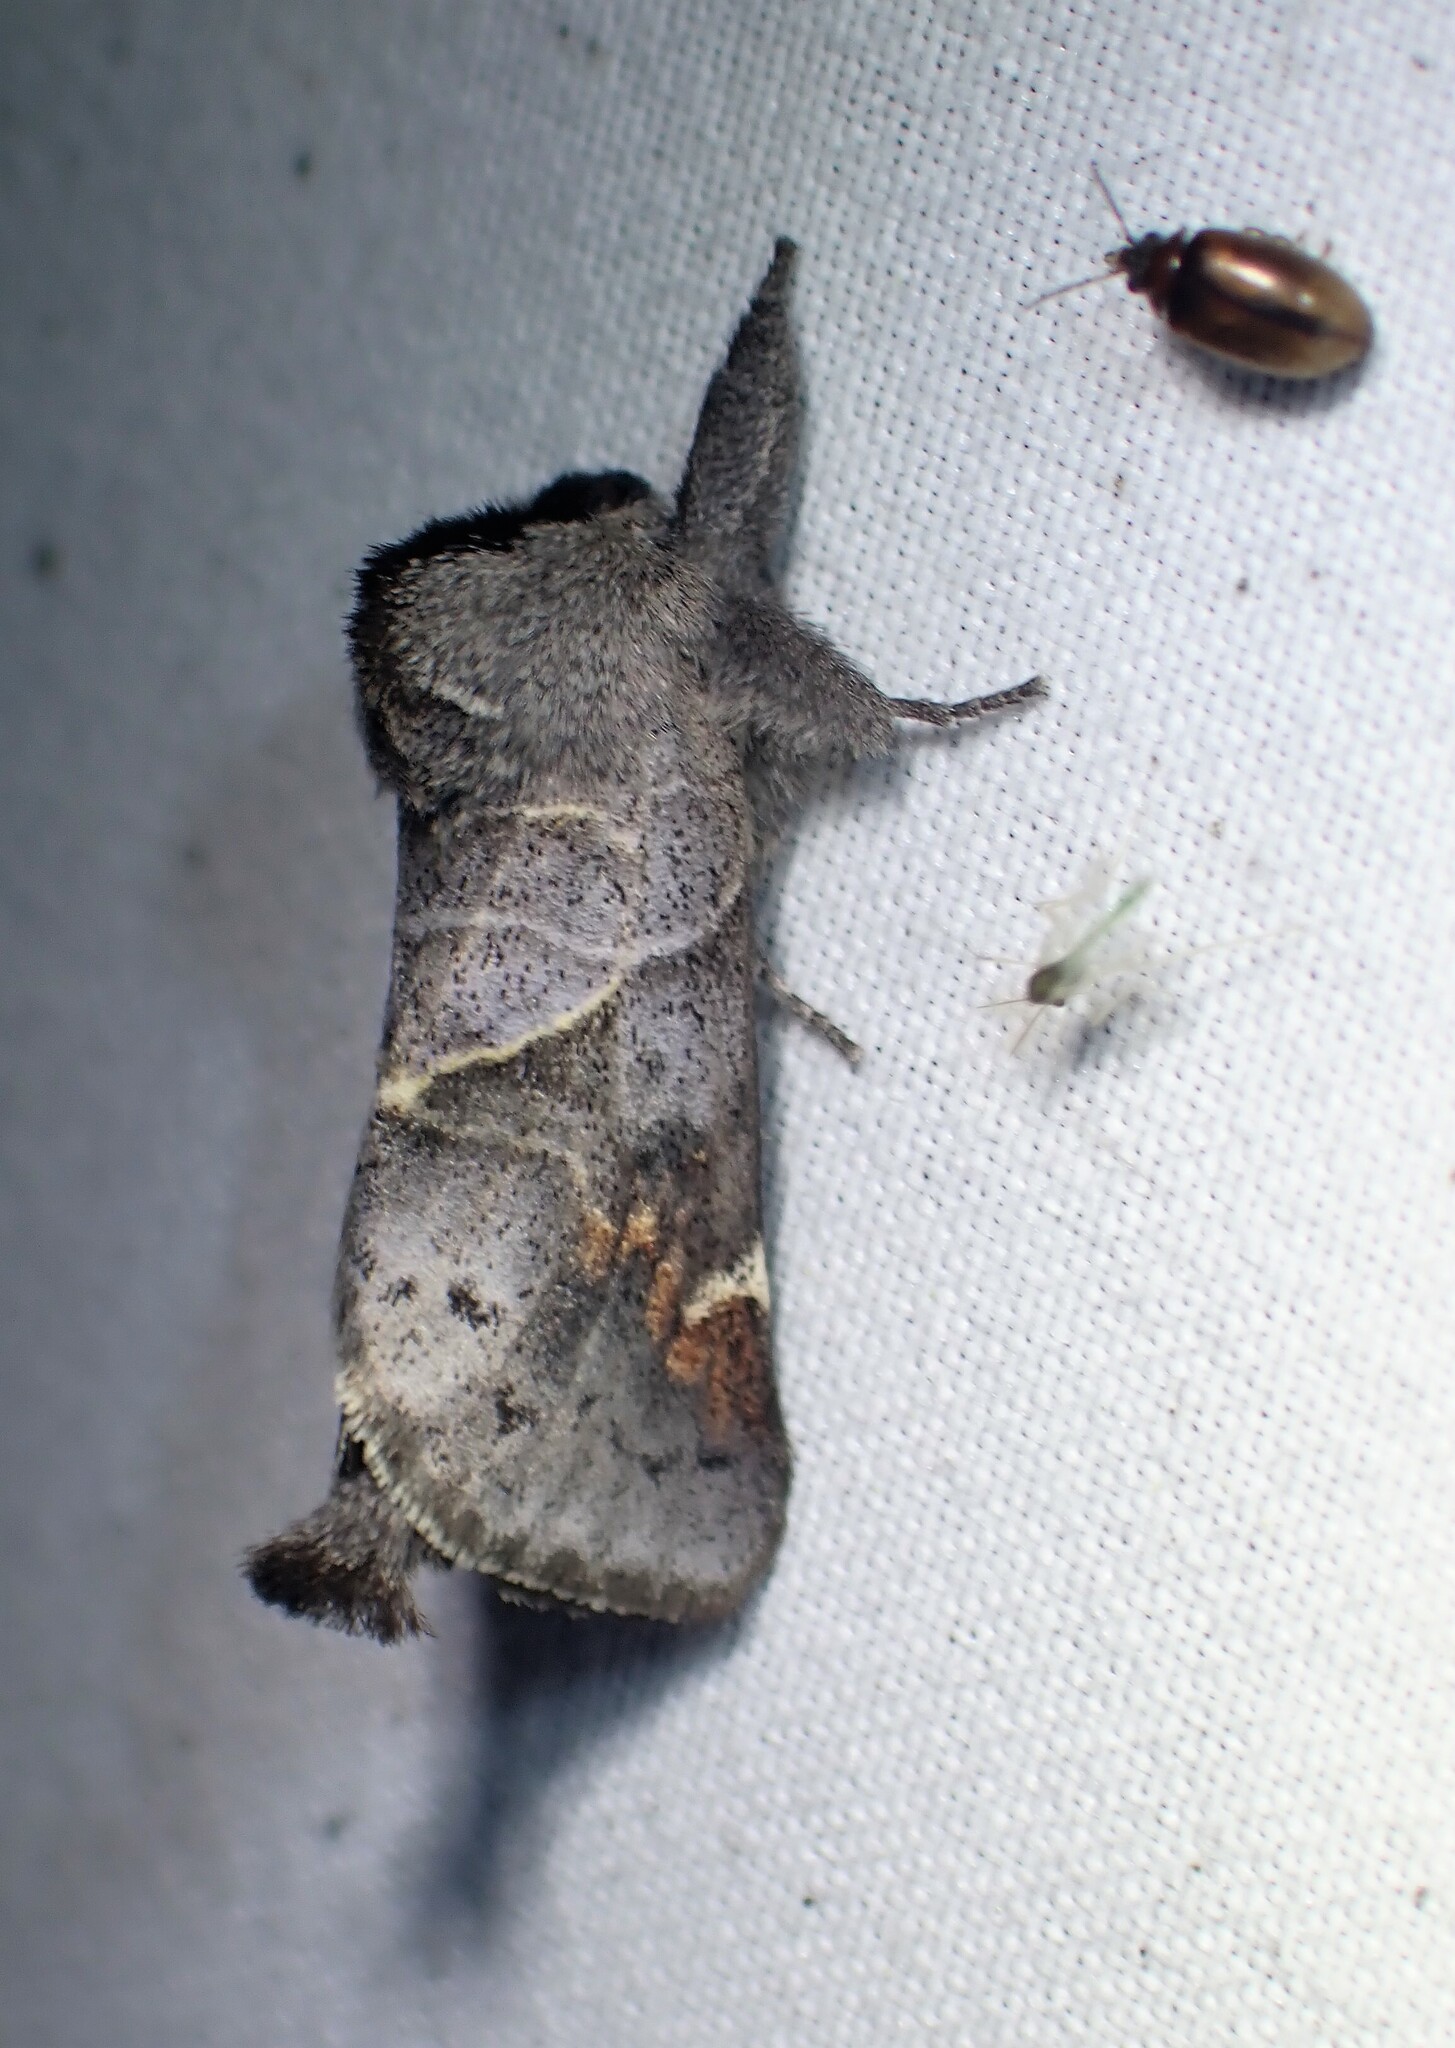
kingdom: Animalia
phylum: Arthropoda
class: Insecta
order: Lepidoptera
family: Notodontidae
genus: Clostera
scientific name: Clostera apicalis
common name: Apical prominent
